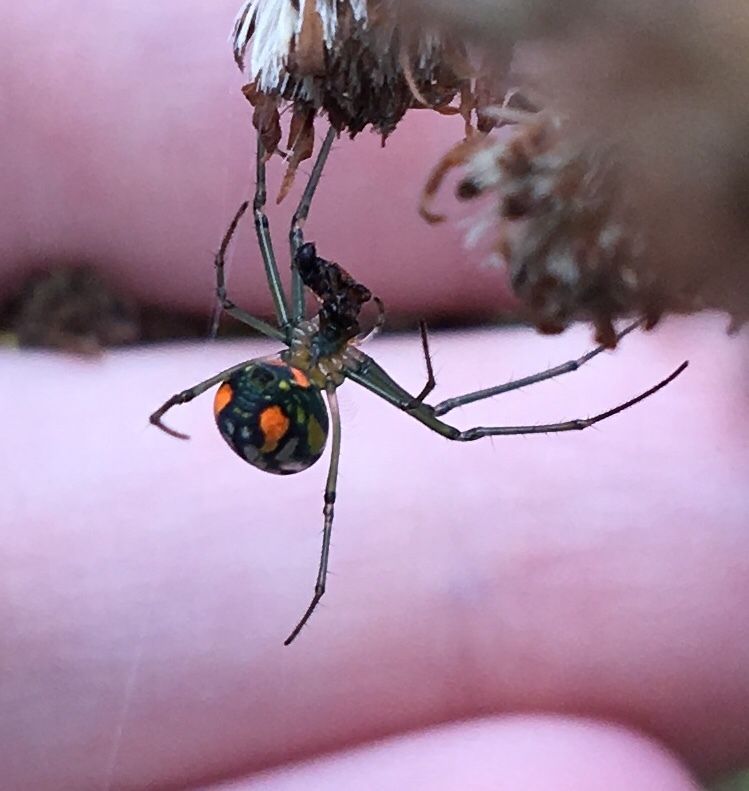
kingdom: Animalia
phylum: Arthropoda
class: Arachnida
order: Araneae
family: Tetragnathidae
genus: Leucauge
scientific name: Leucauge argyrobapta
